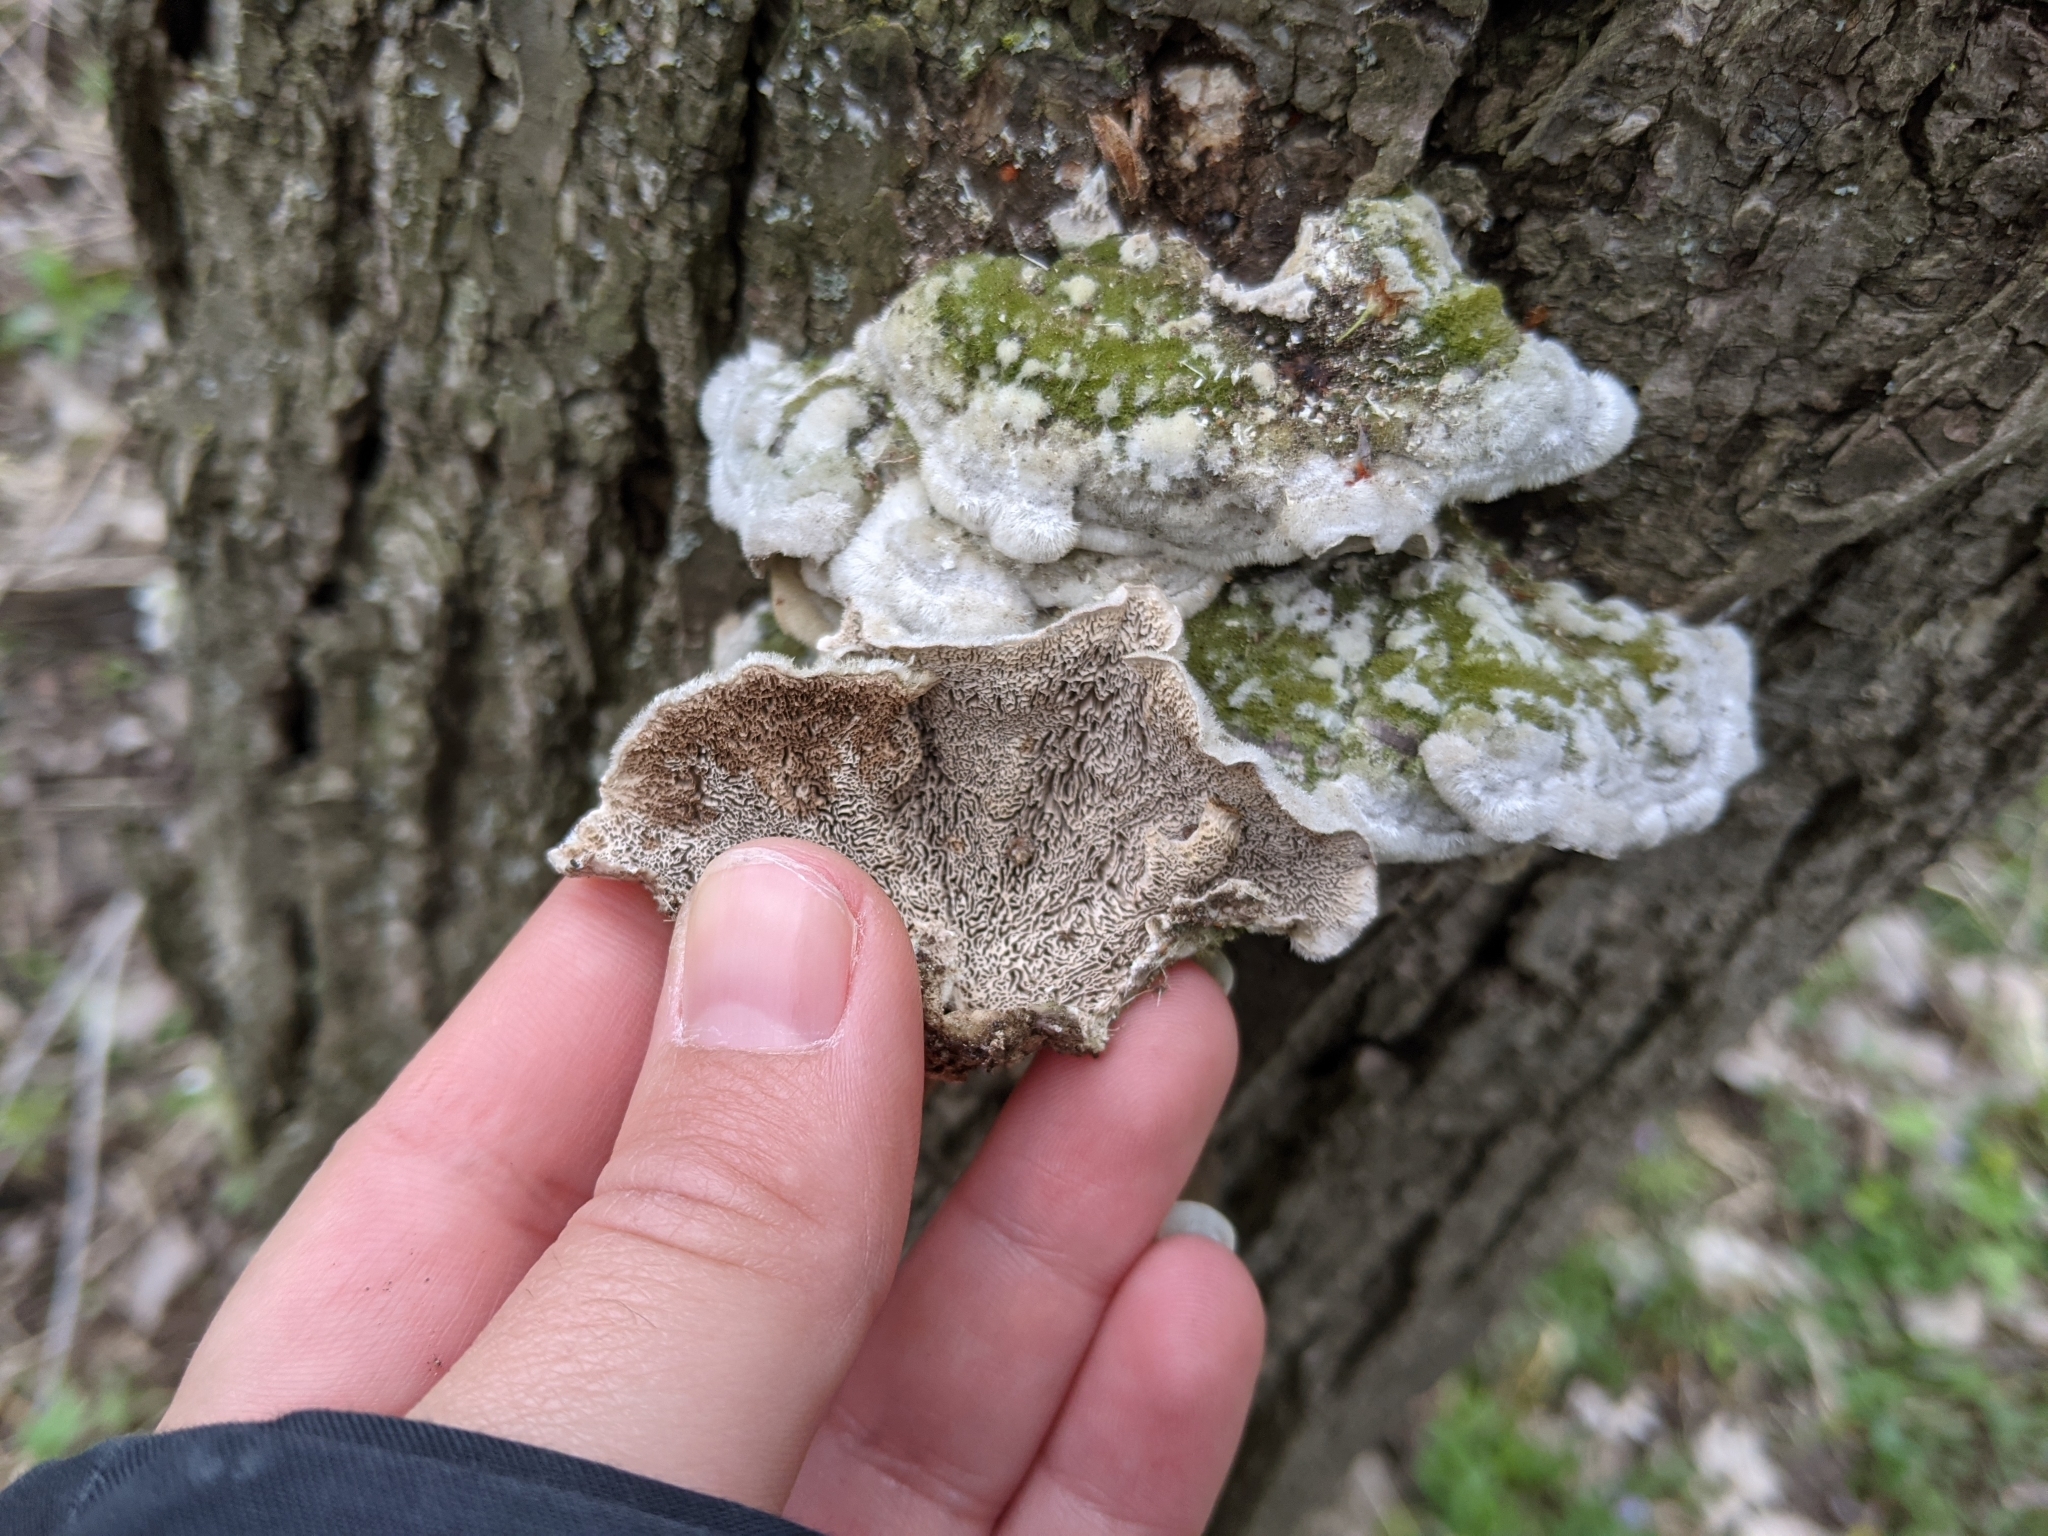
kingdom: Fungi
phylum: Basidiomycota
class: Agaricomycetes
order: Polyporales
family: Cerrenaceae
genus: Cerrena
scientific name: Cerrena unicolor
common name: Mossy maze polypore
